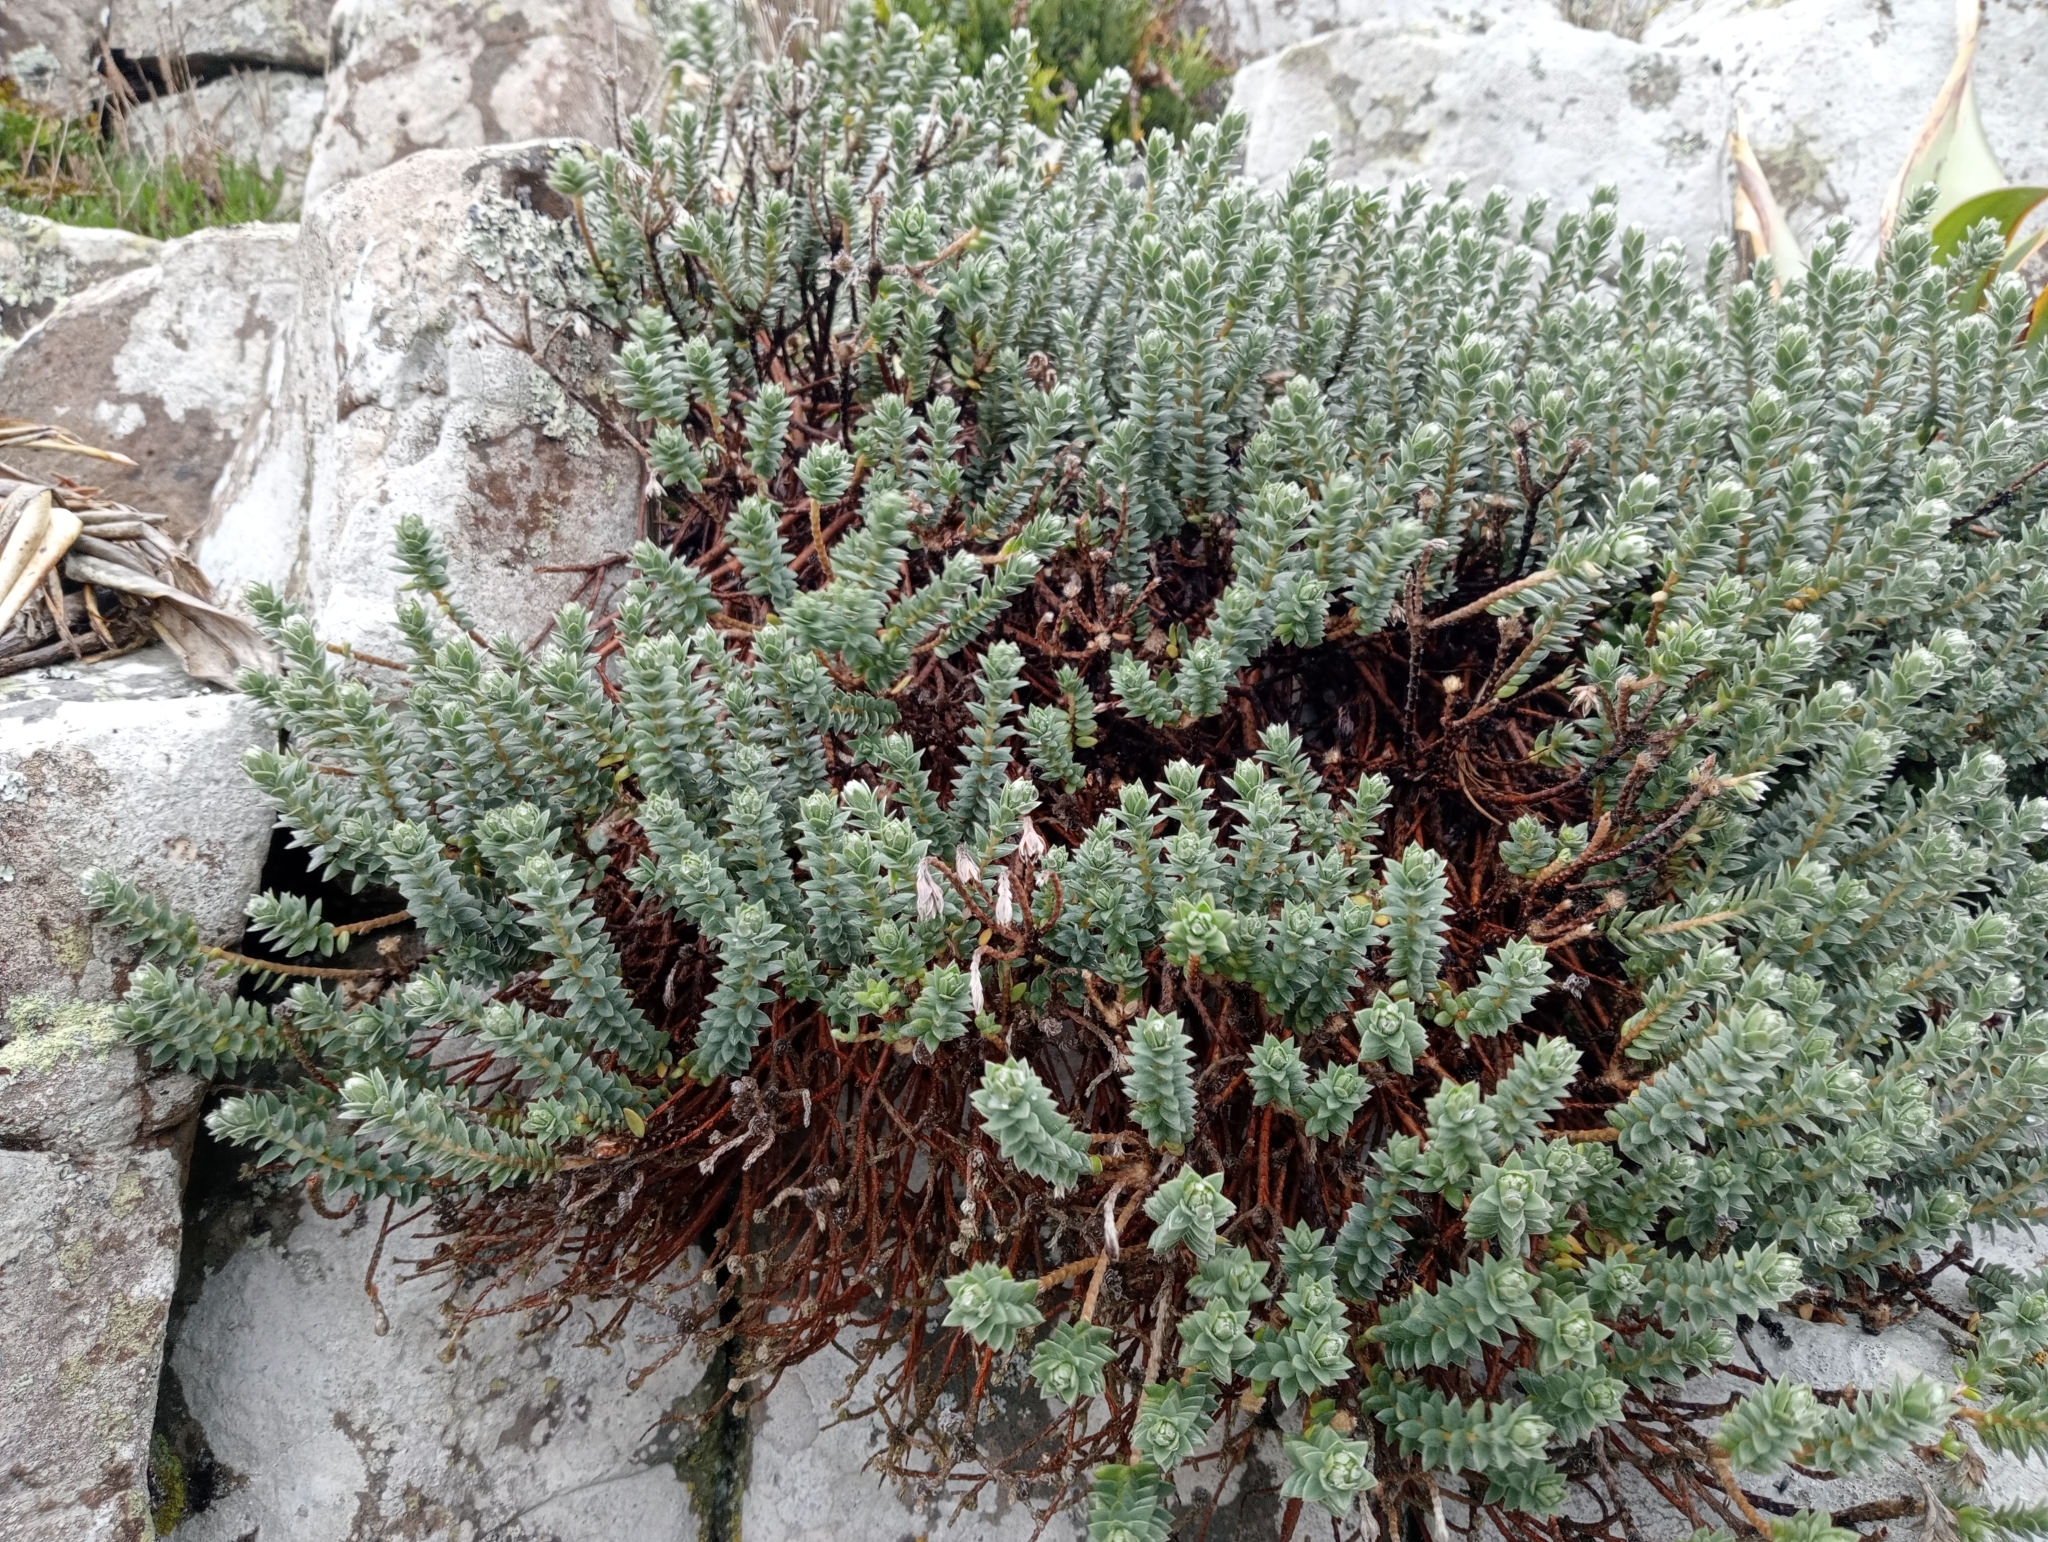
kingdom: Plantae
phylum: Tracheophyta
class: Magnoliopsida
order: Malvales
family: Thymelaeaceae
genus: Pimelea
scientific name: Pimelea villosa
